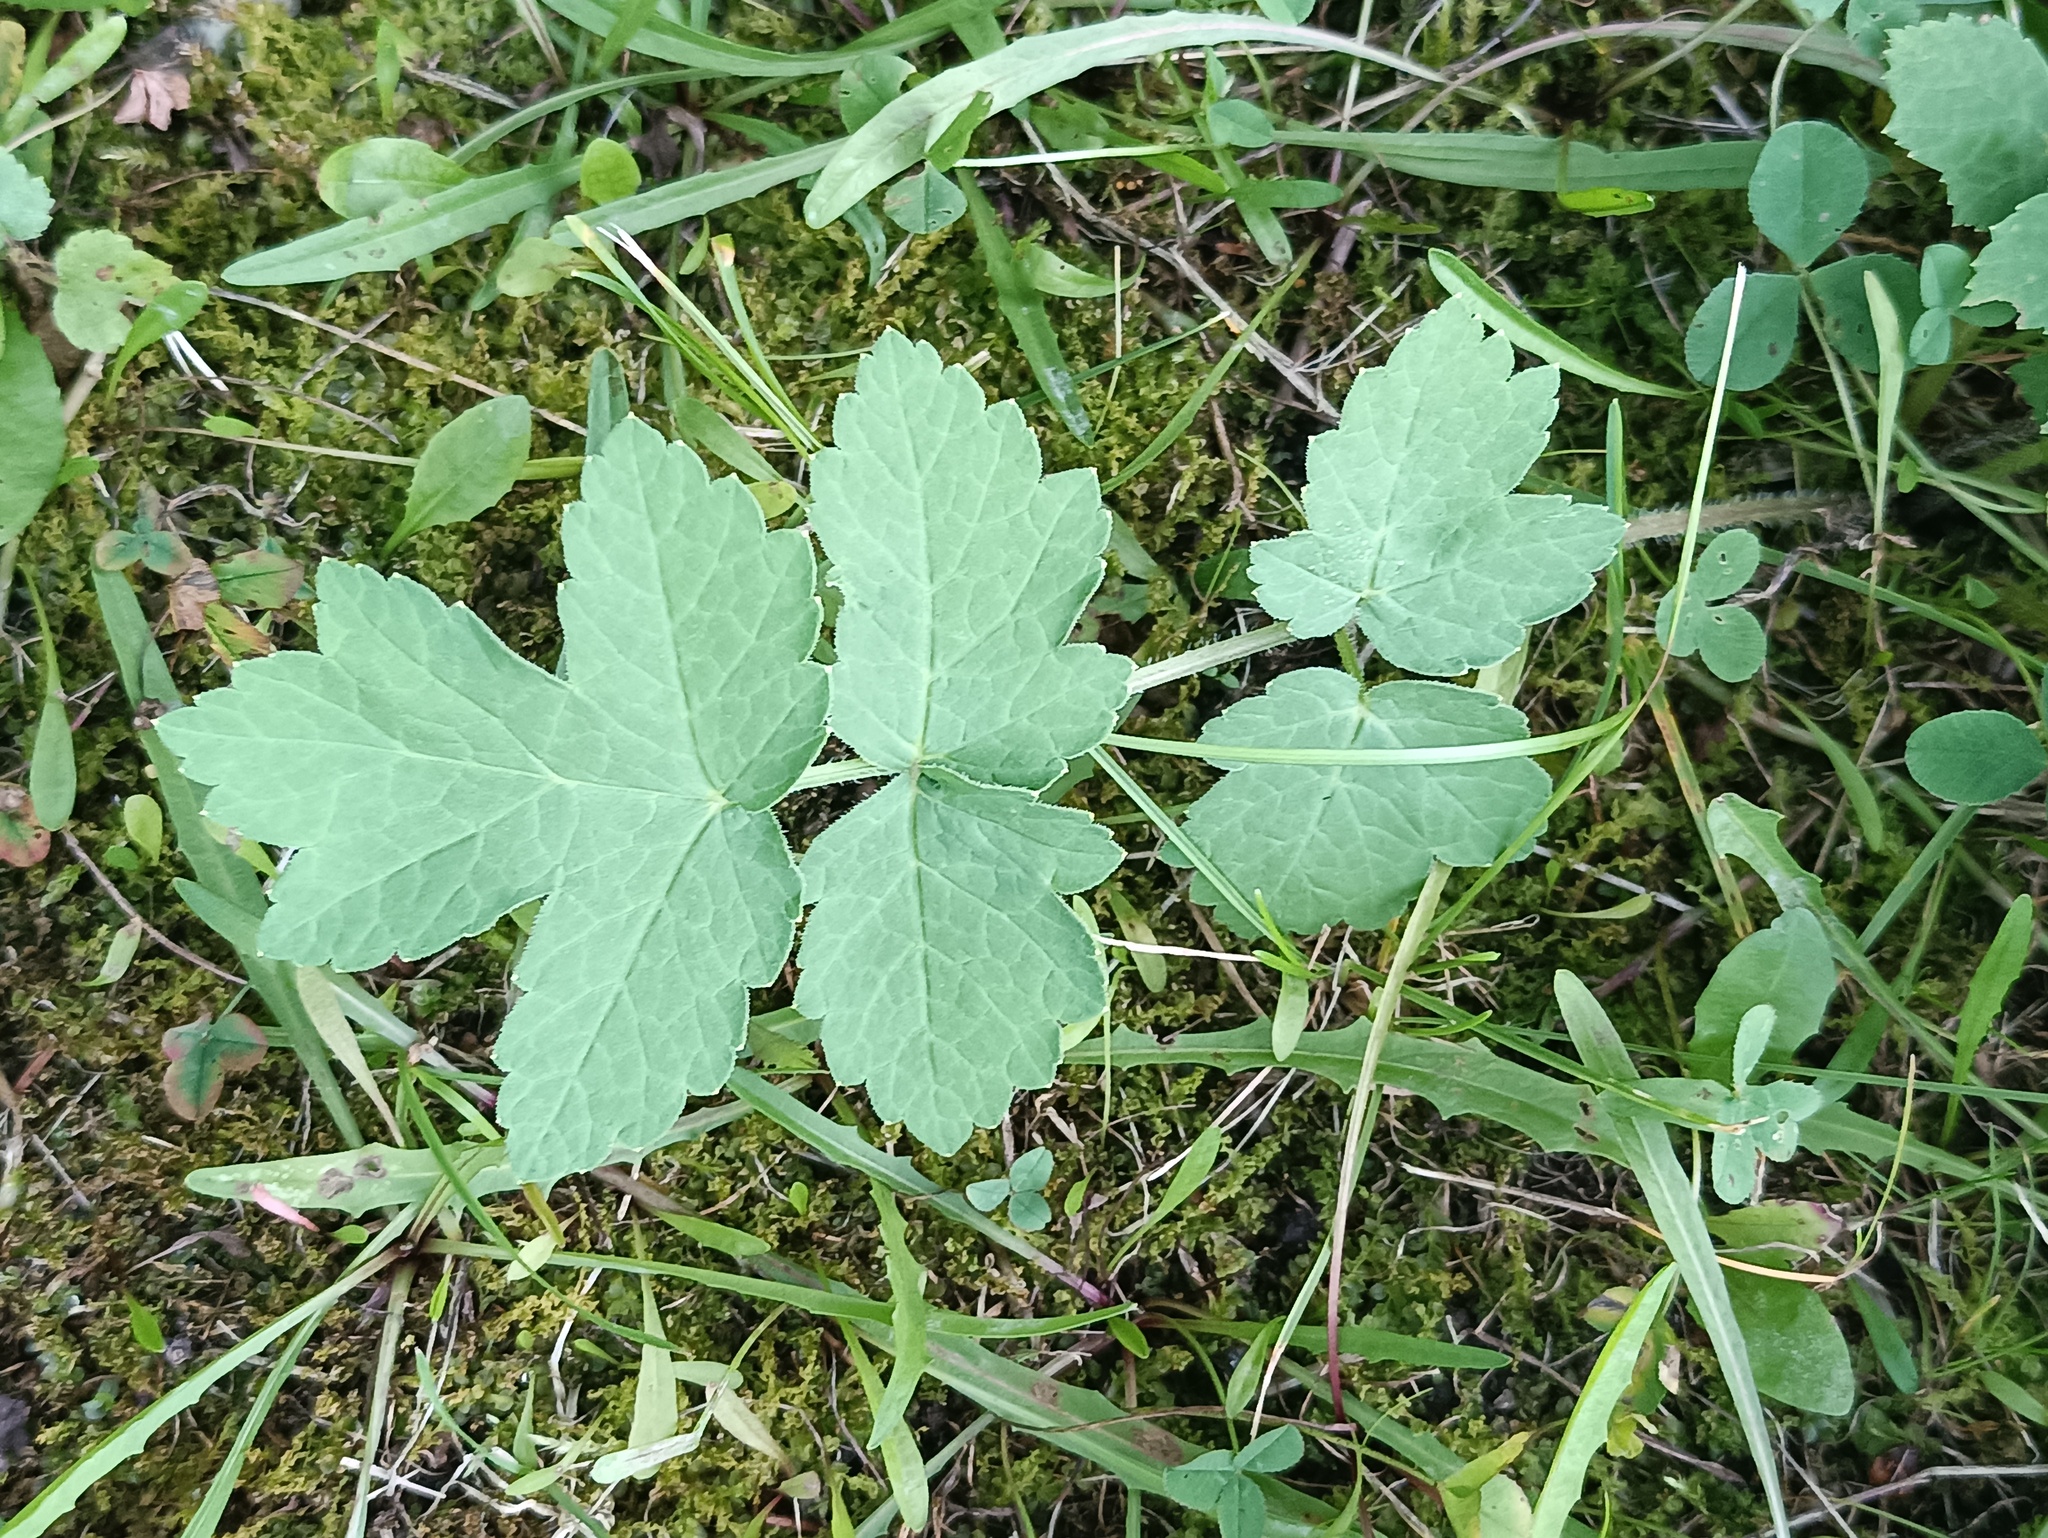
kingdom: Plantae
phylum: Tracheophyta
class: Magnoliopsida
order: Apiales
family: Apiaceae
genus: Heracleum
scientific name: Heracleum sphondylium
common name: Hogweed
